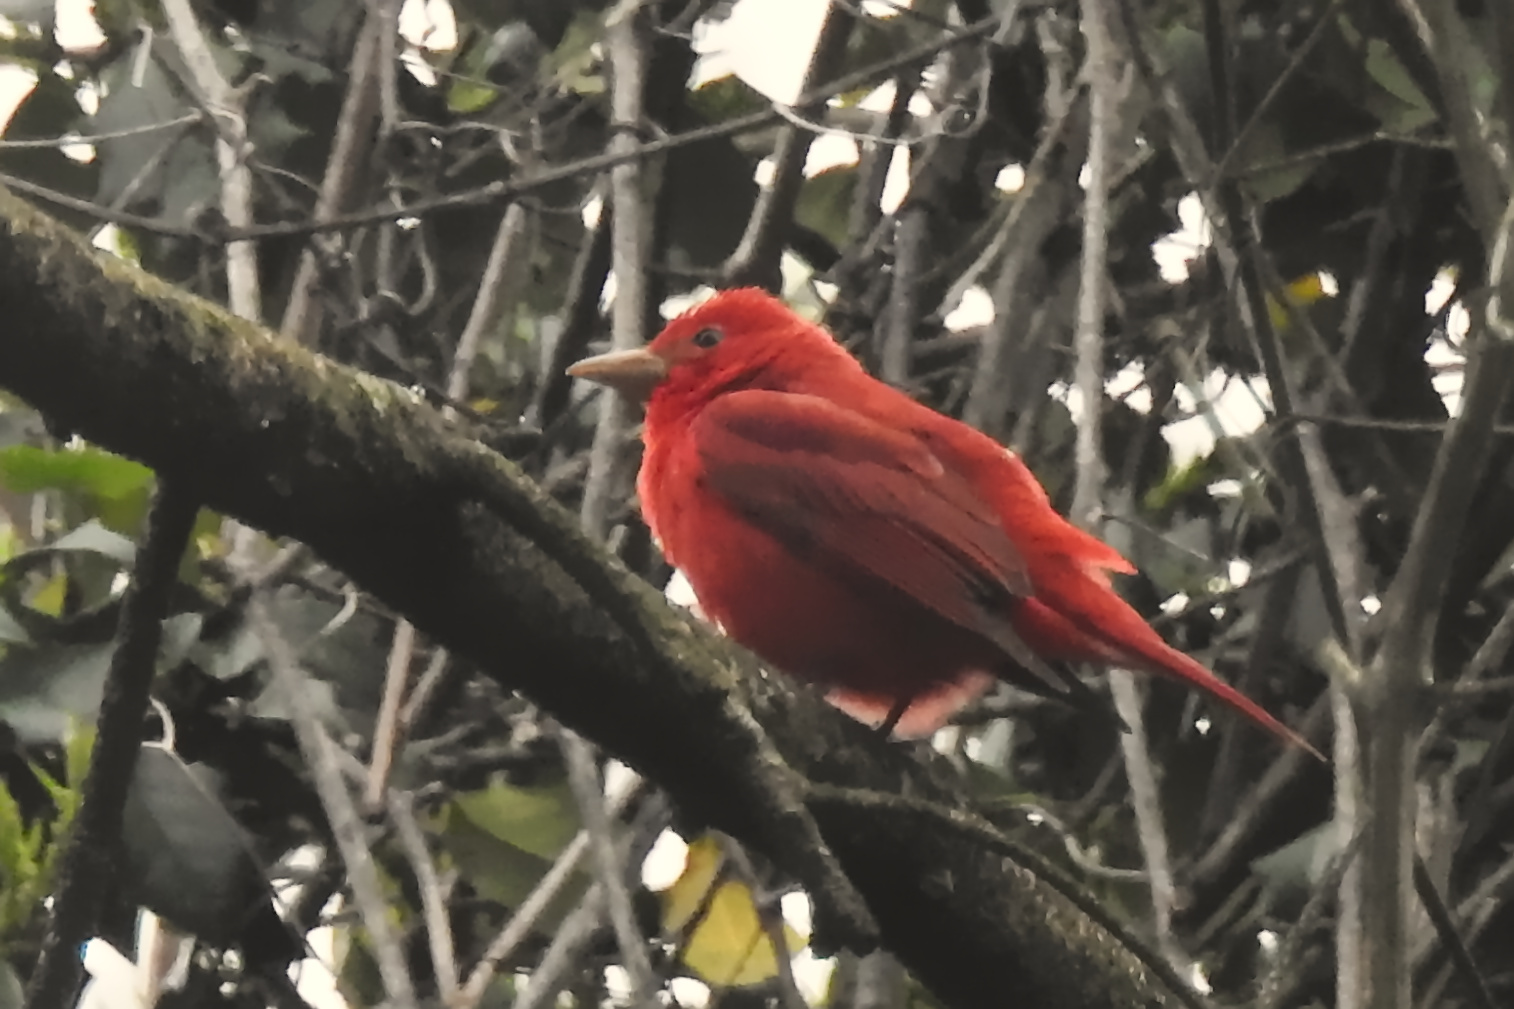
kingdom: Animalia
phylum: Chordata
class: Aves
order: Passeriformes
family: Cardinalidae
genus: Piranga
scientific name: Piranga rubra
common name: Summer tanager
